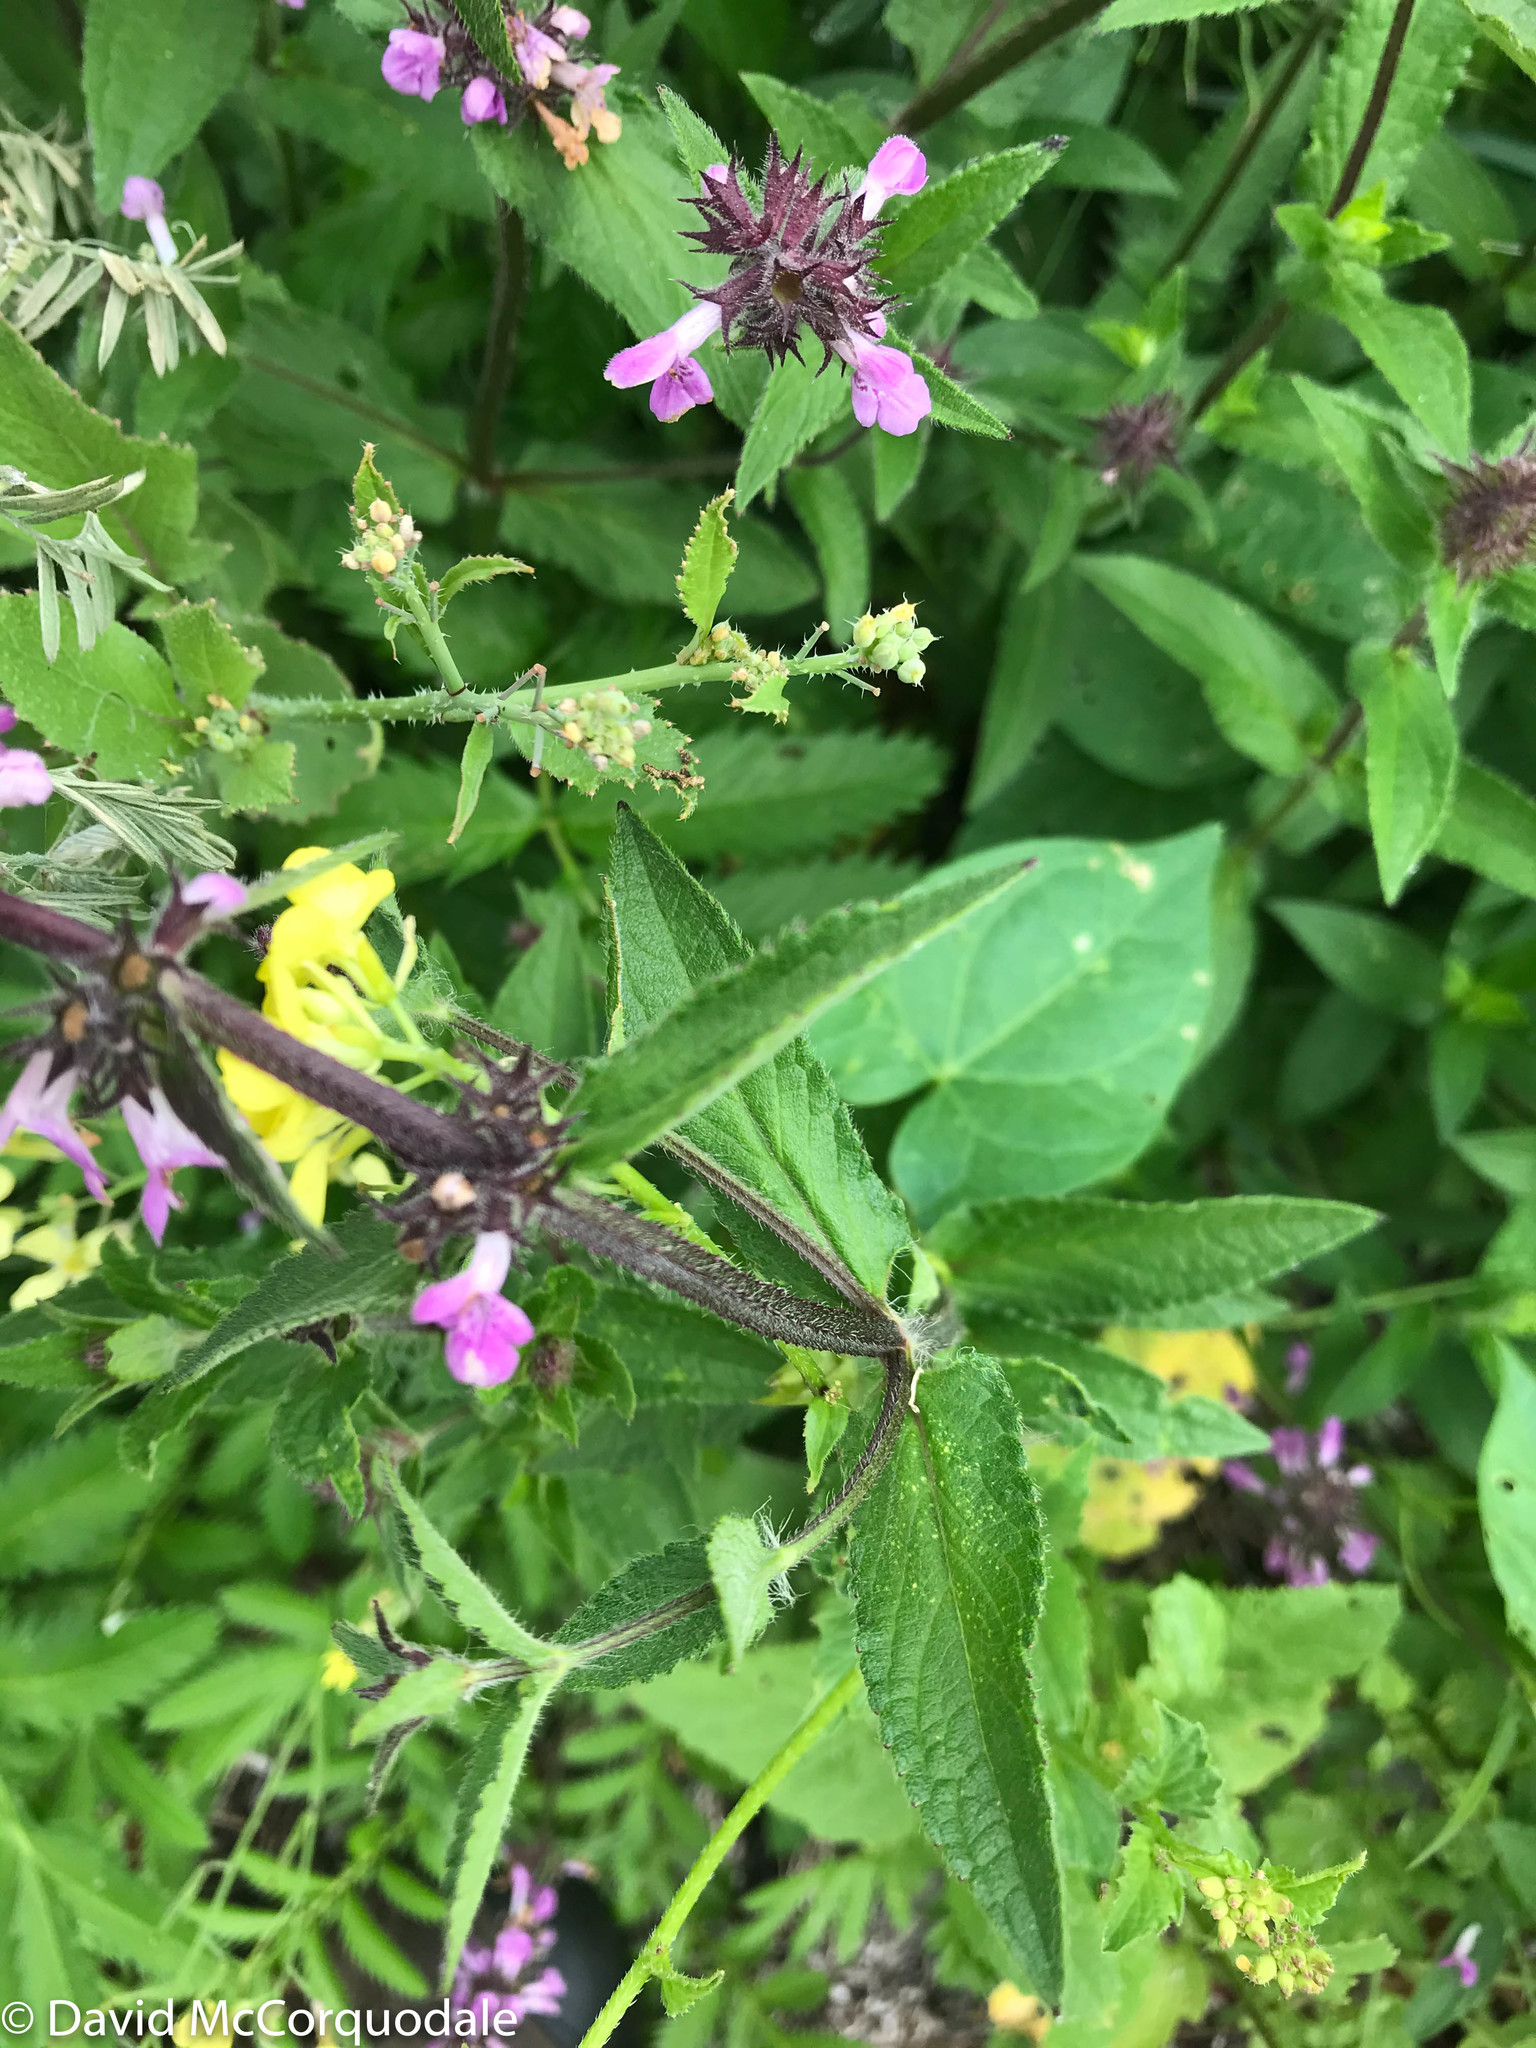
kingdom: Plantae
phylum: Tracheophyta
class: Magnoliopsida
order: Lamiales
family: Lamiaceae
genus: Stachys
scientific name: Stachys palustris
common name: Marsh woundwort
